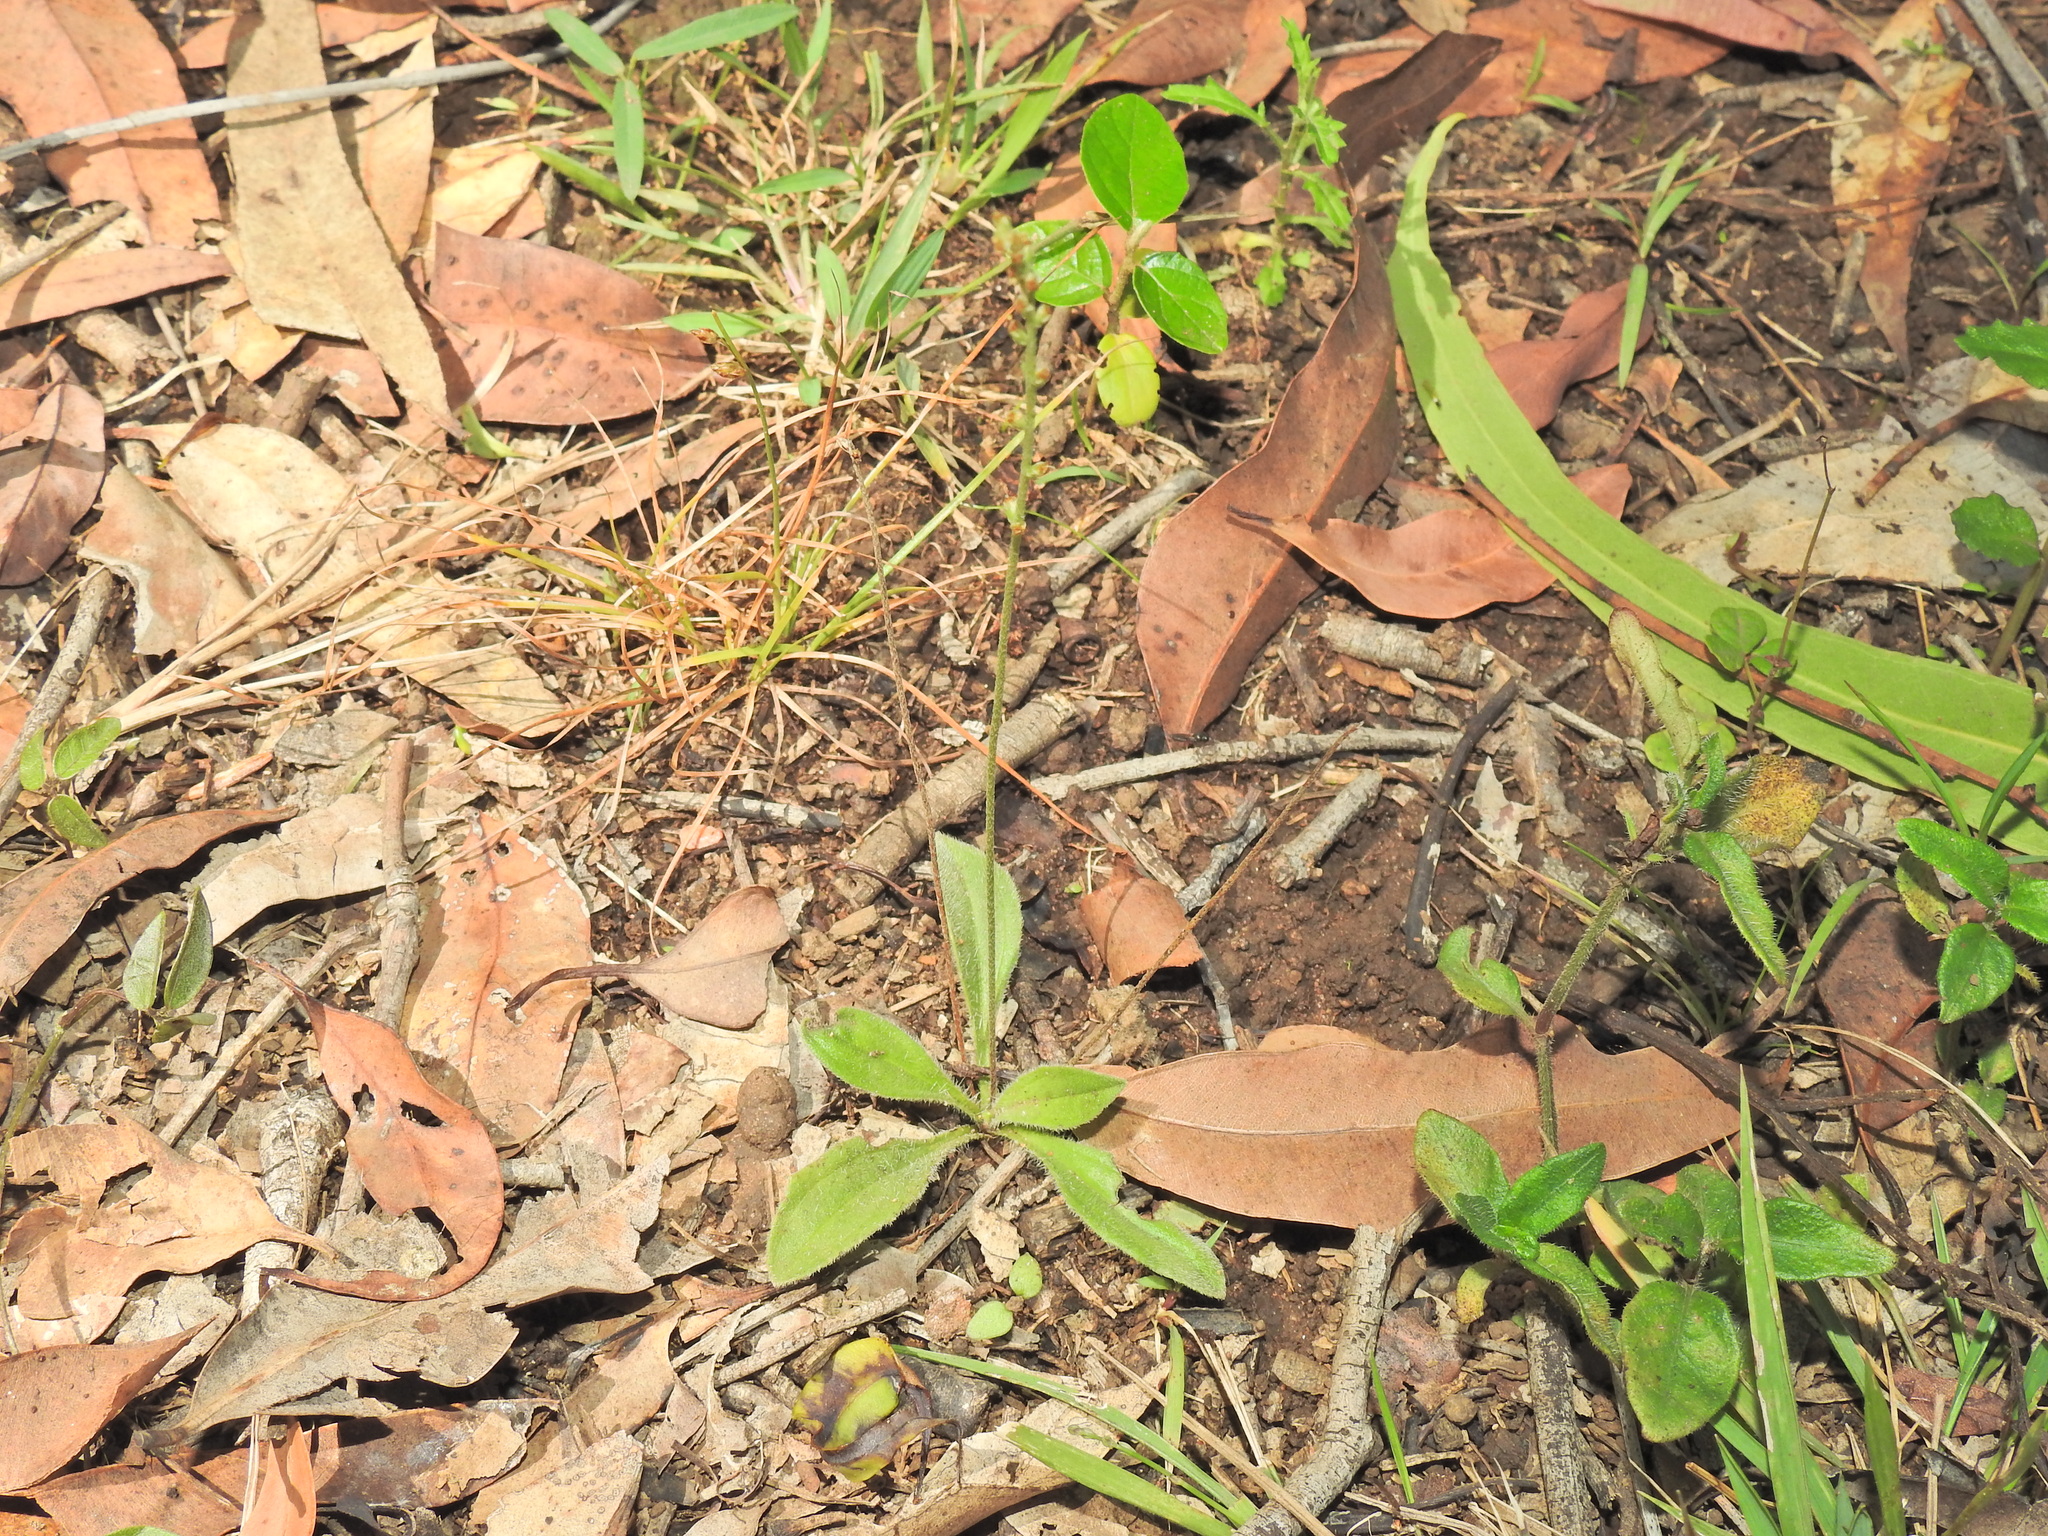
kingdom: Plantae
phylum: Tracheophyta
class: Magnoliopsida
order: Lamiales
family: Plantaginaceae
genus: Plantago
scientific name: Plantago debilis
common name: Weak plantain
